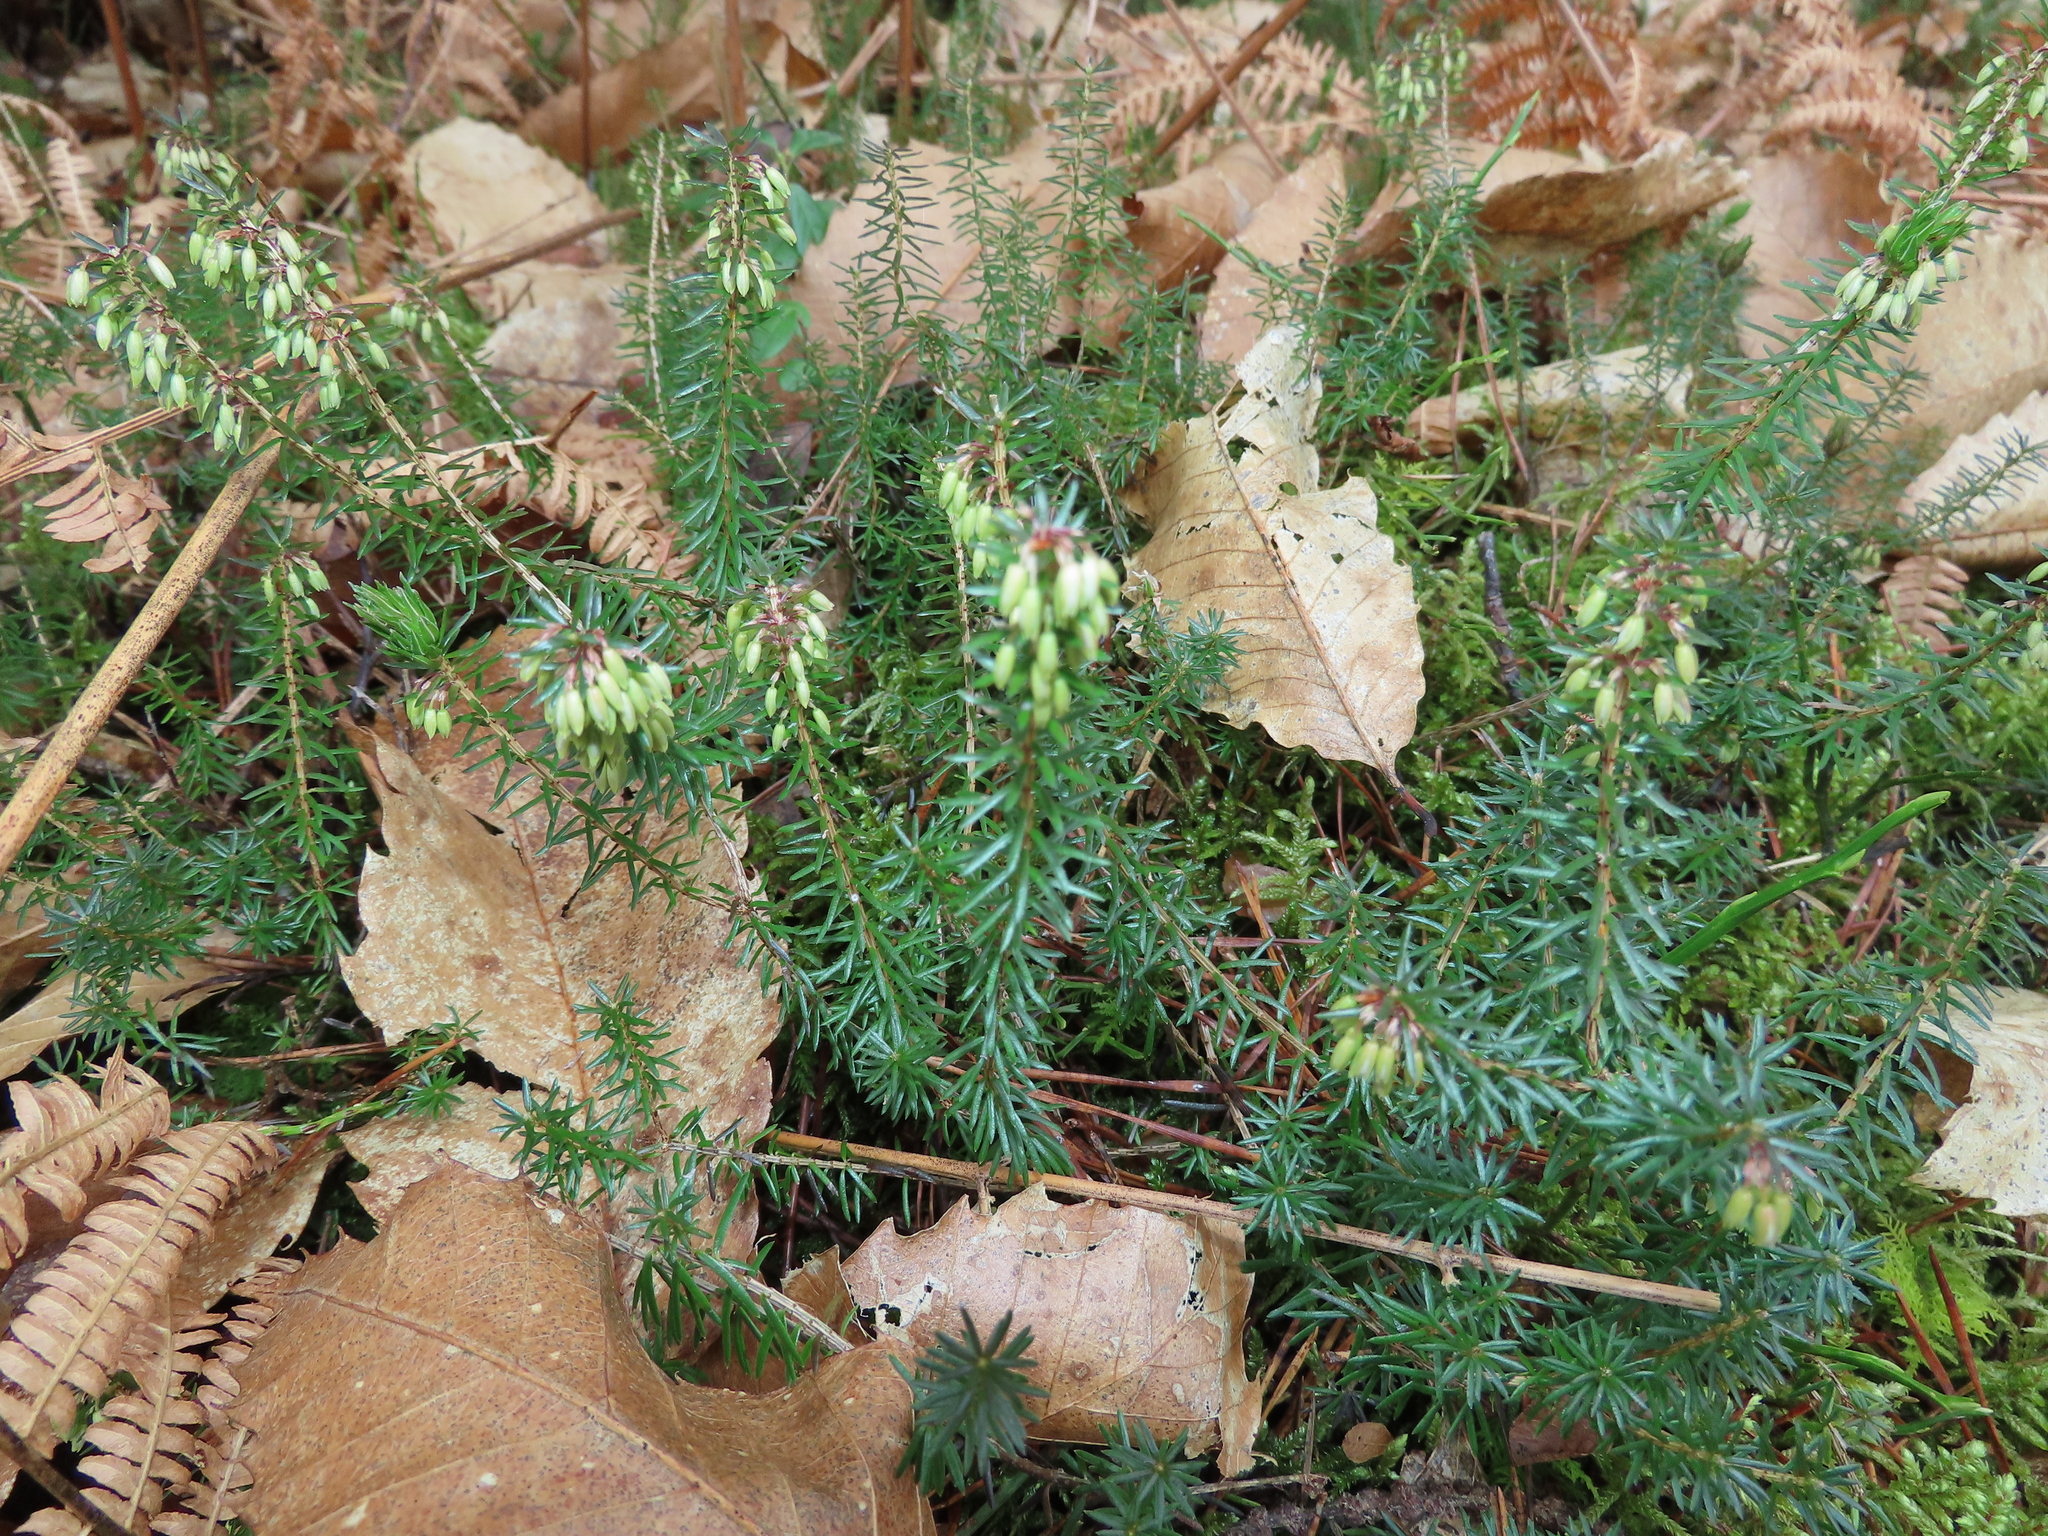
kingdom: Plantae
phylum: Tracheophyta
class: Magnoliopsida
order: Ericales
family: Ericaceae
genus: Erica
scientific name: Erica carnea
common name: Winter heath
